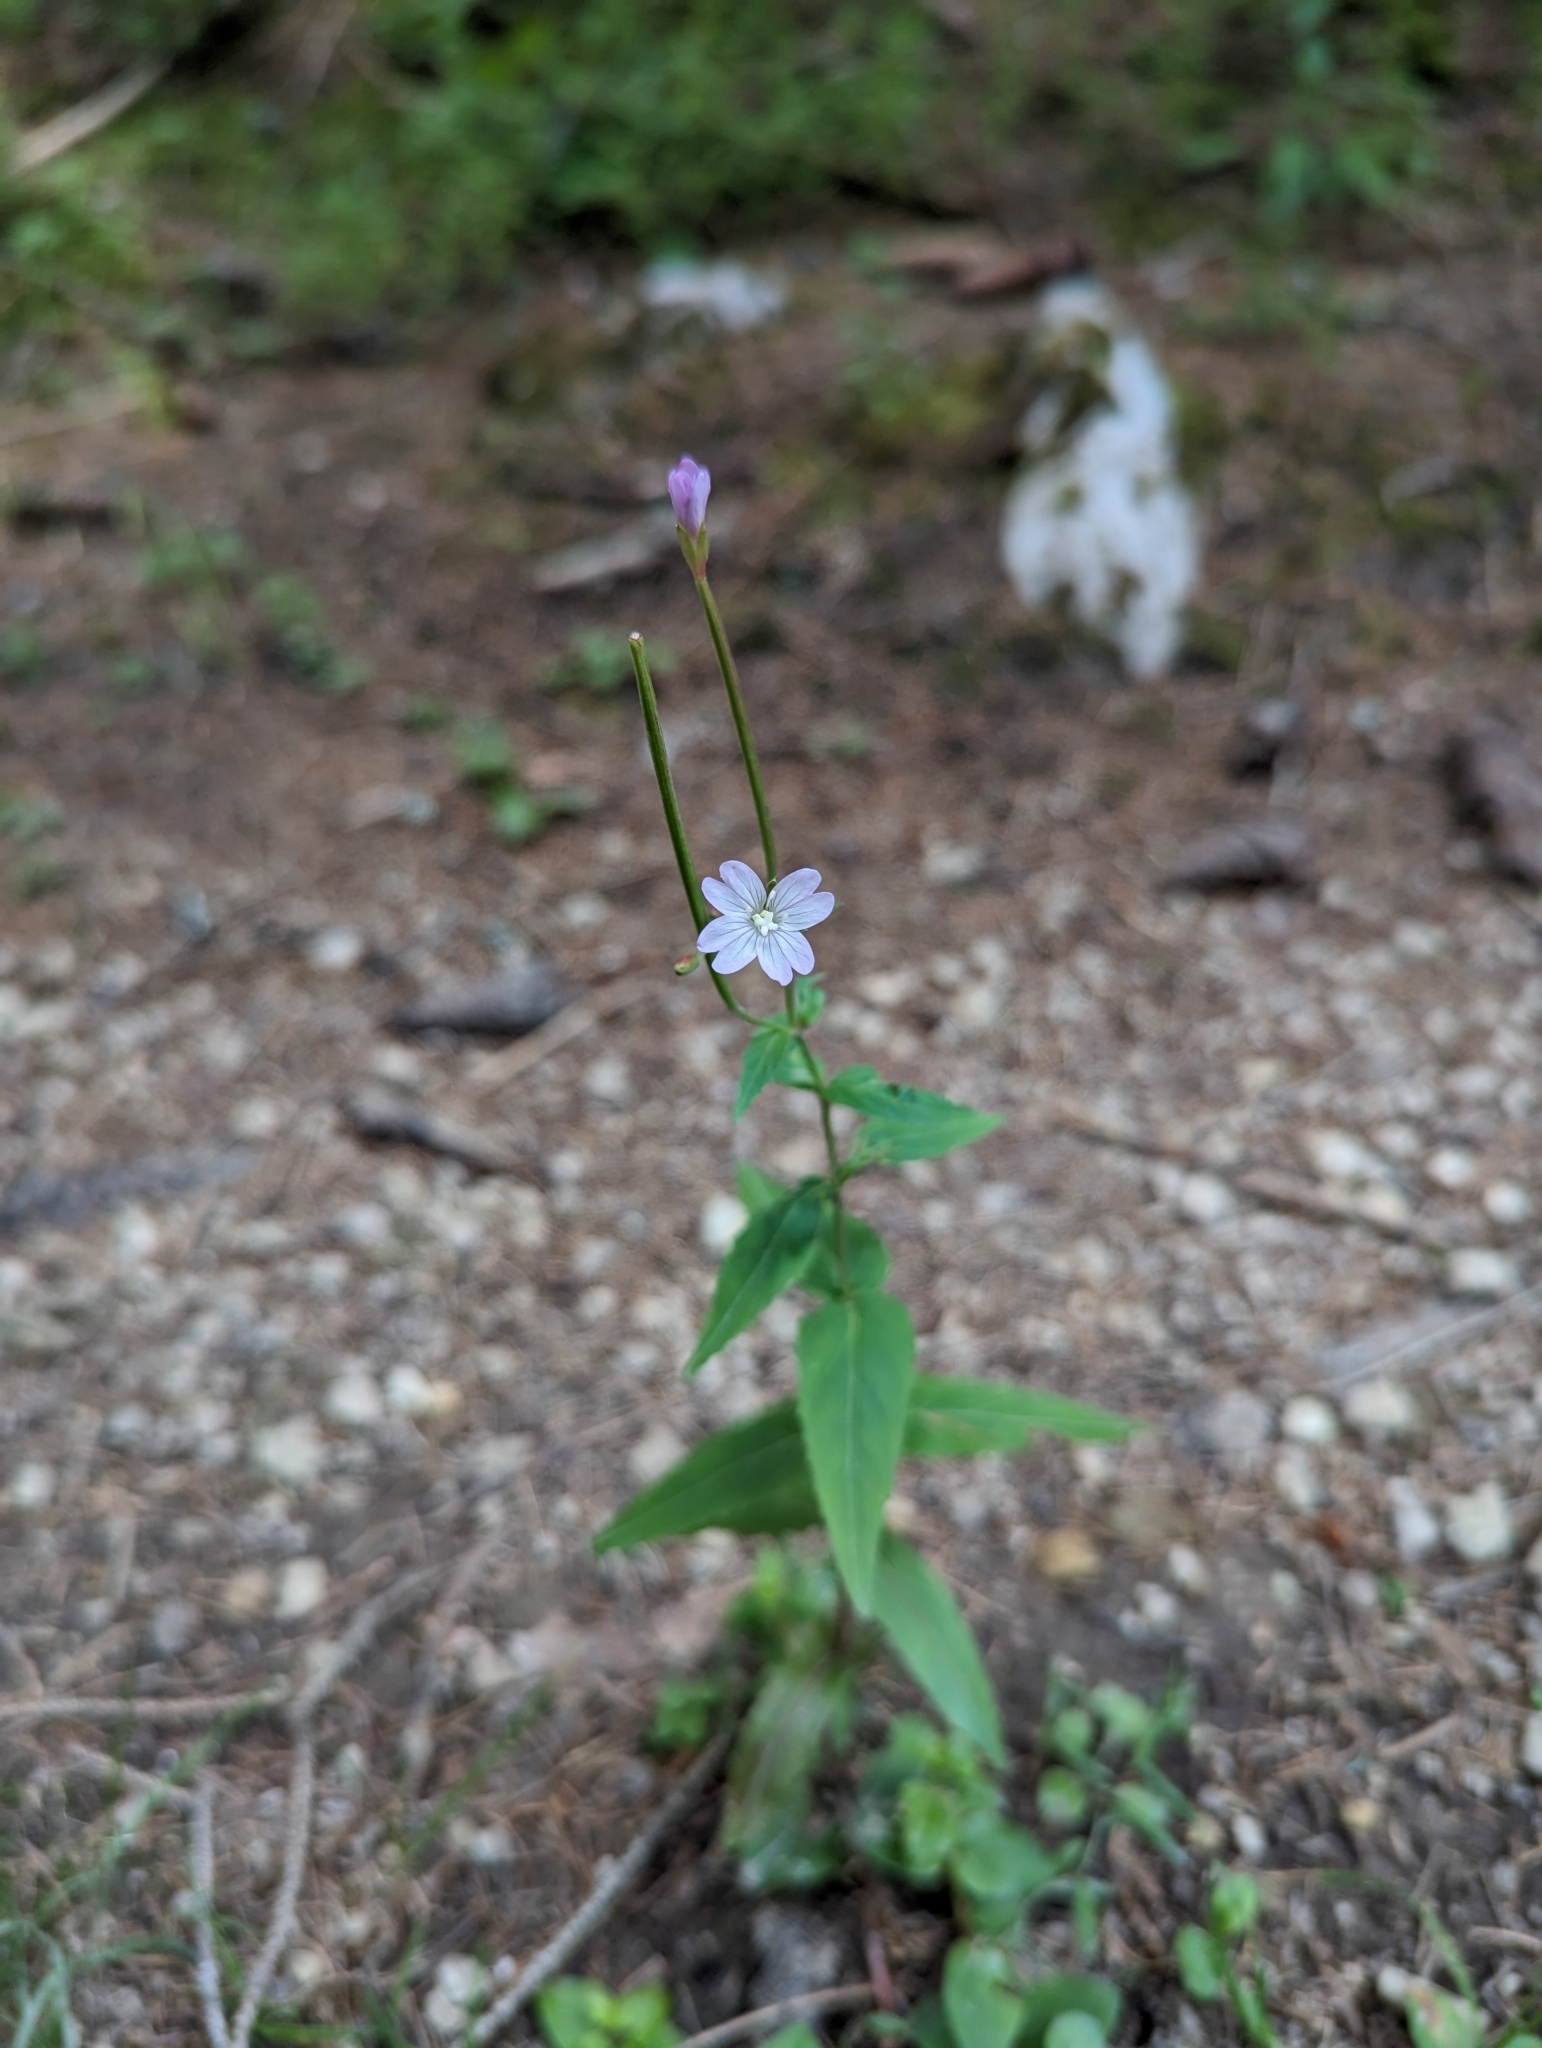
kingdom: Plantae
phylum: Tracheophyta
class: Magnoliopsida
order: Myrtales
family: Onagraceae
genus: Epilobium
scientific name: Epilobium montanum
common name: Broad-leaved willowherb
